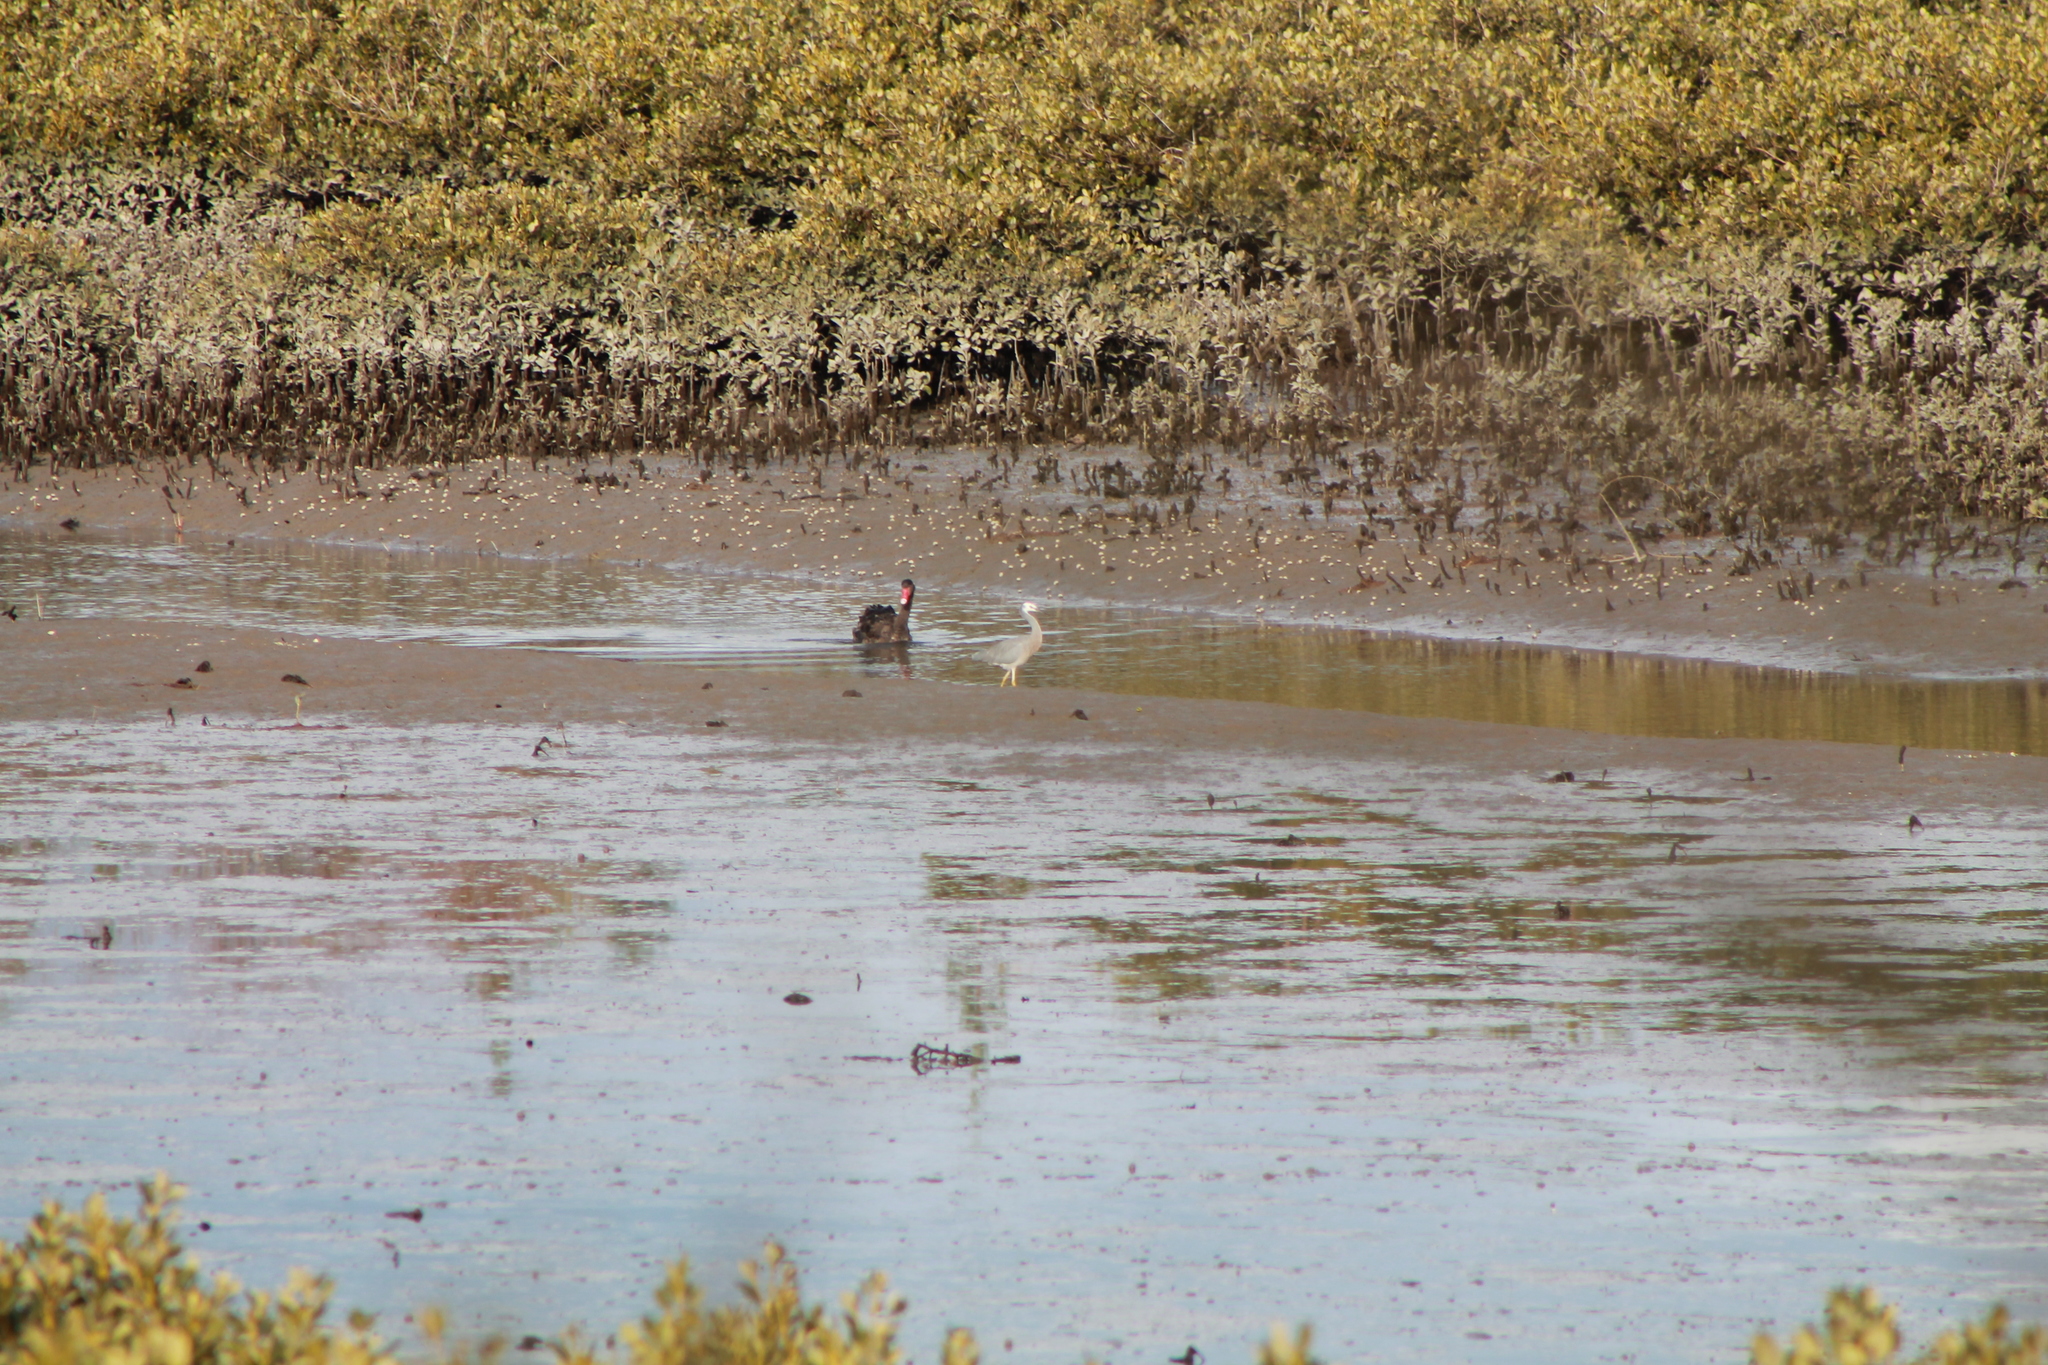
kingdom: Animalia
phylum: Chordata
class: Aves
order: Anseriformes
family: Anatidae
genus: Cygnus
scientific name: Cygnus atratus
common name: Black swan
